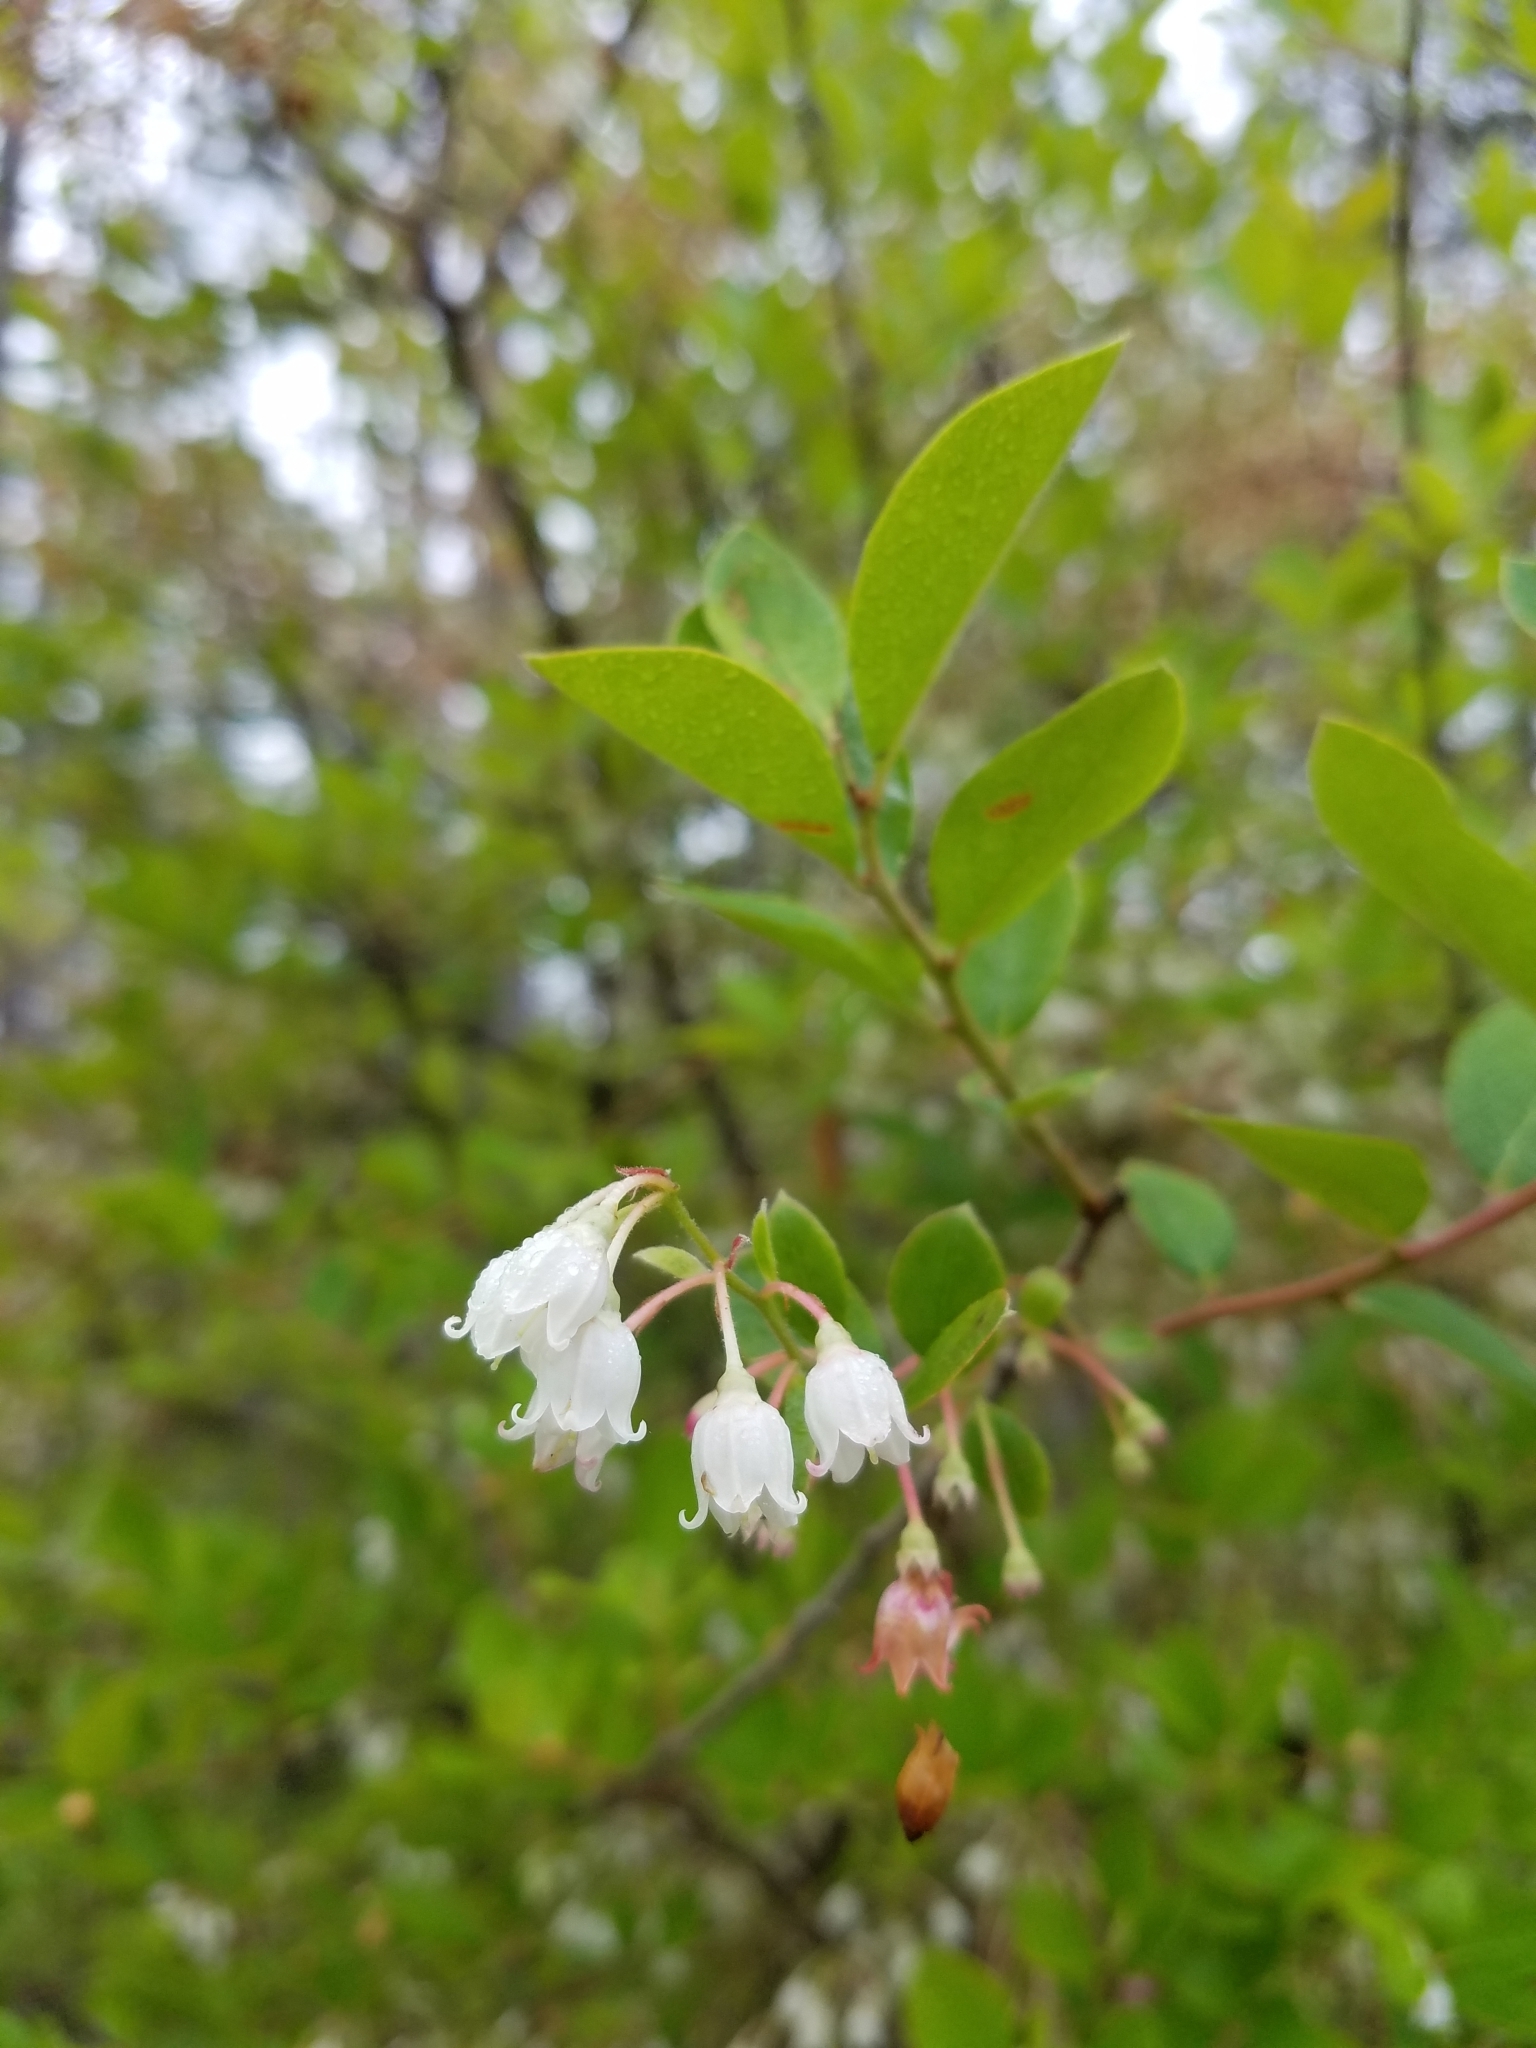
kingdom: Plantae
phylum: Tracheophyta
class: Magnoliopsida
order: Ericales
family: Ericaceae
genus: Vaccinium
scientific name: Vaccinium arboreum
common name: Farkleberry
